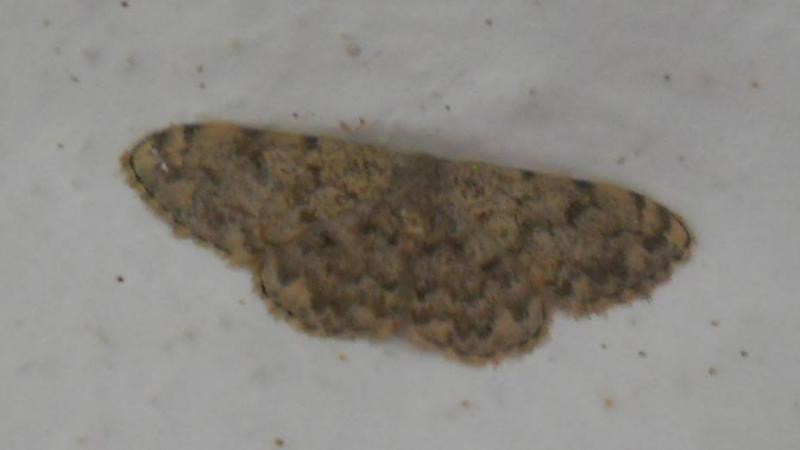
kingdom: Animalia
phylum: Arthropoda
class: Insecta
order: Lepidoptera
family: Geometridae
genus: Glossotrophia
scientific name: Glossotrophia asellaria
